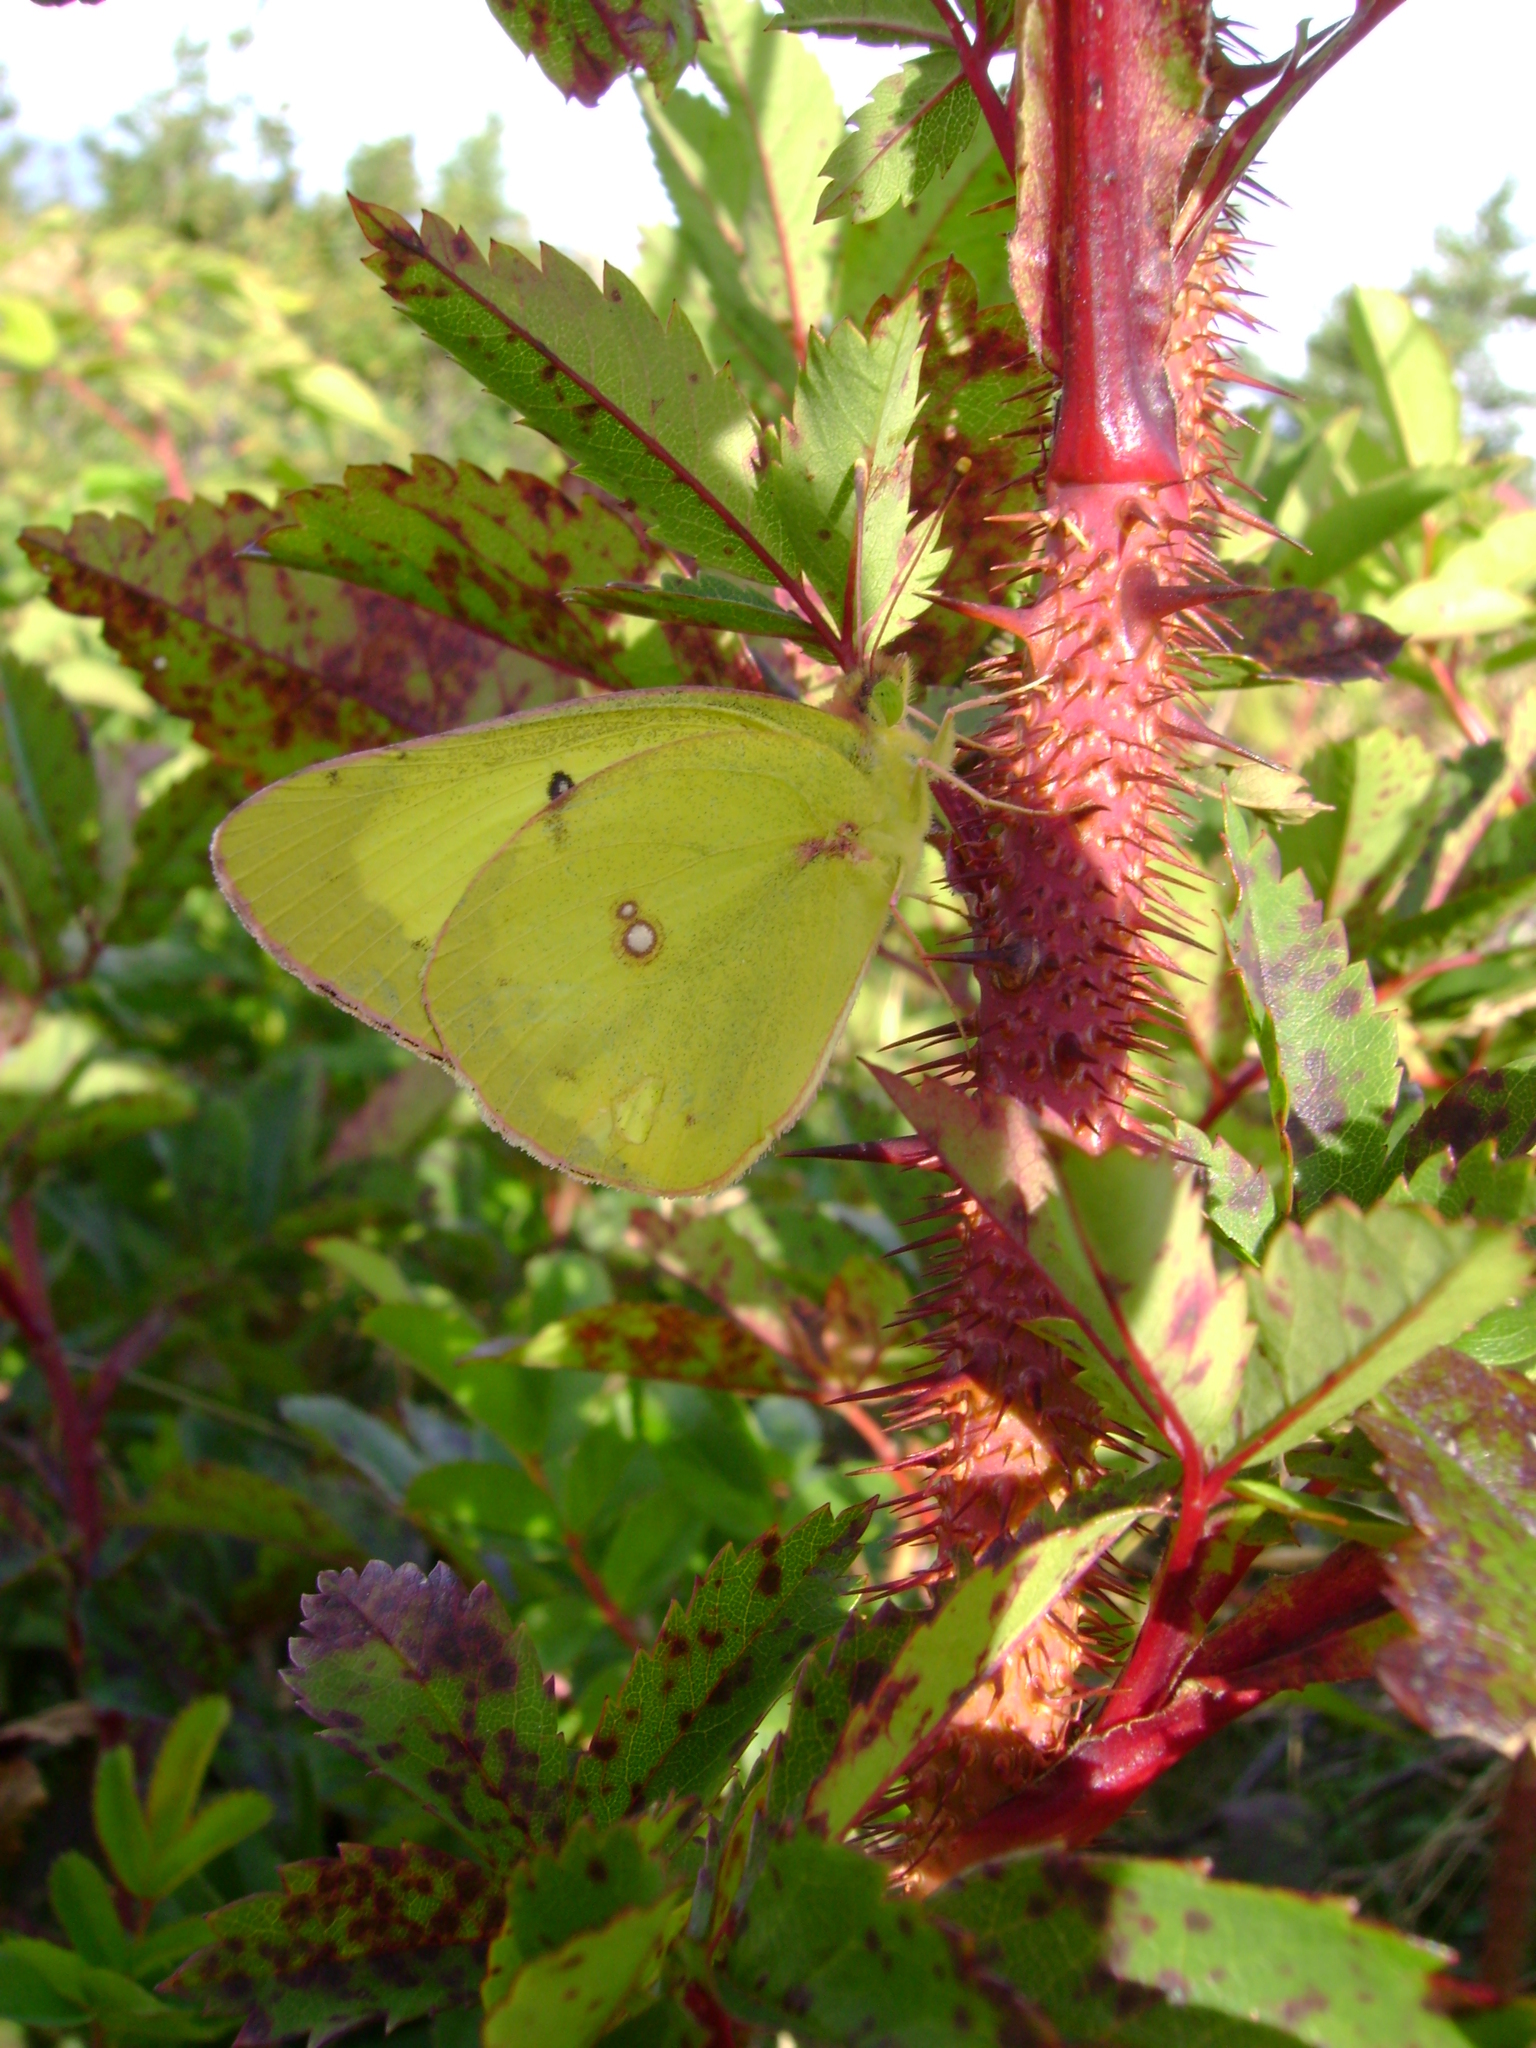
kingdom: Animalia
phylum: Arthropoda
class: Insecta
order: Lepidoptera
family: Pieridae
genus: Colias
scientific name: Colias philodice
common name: Clouded sulphur
